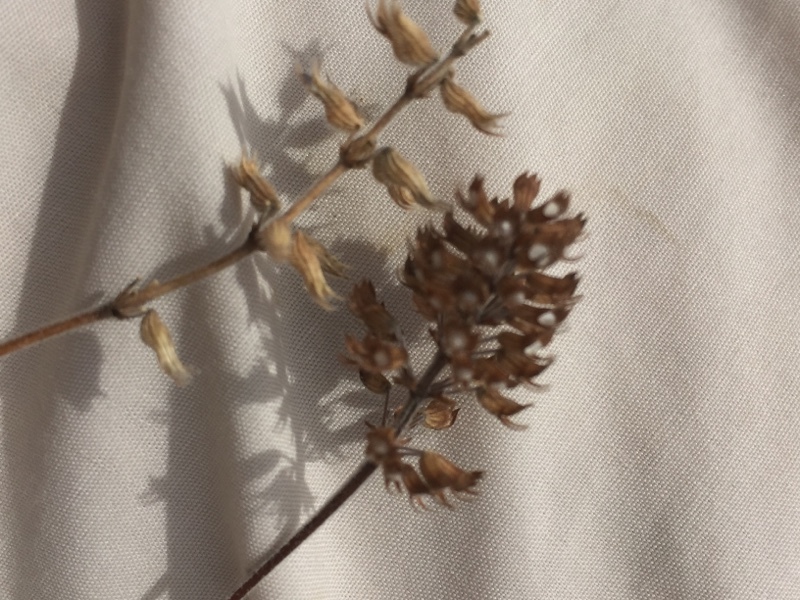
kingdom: Plantae
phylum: Tracheophyta
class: Magnoliopsida
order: Lamiales
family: Lamiaceae
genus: Clinopodium
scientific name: Clinopodium acinos
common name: Basil thyme
